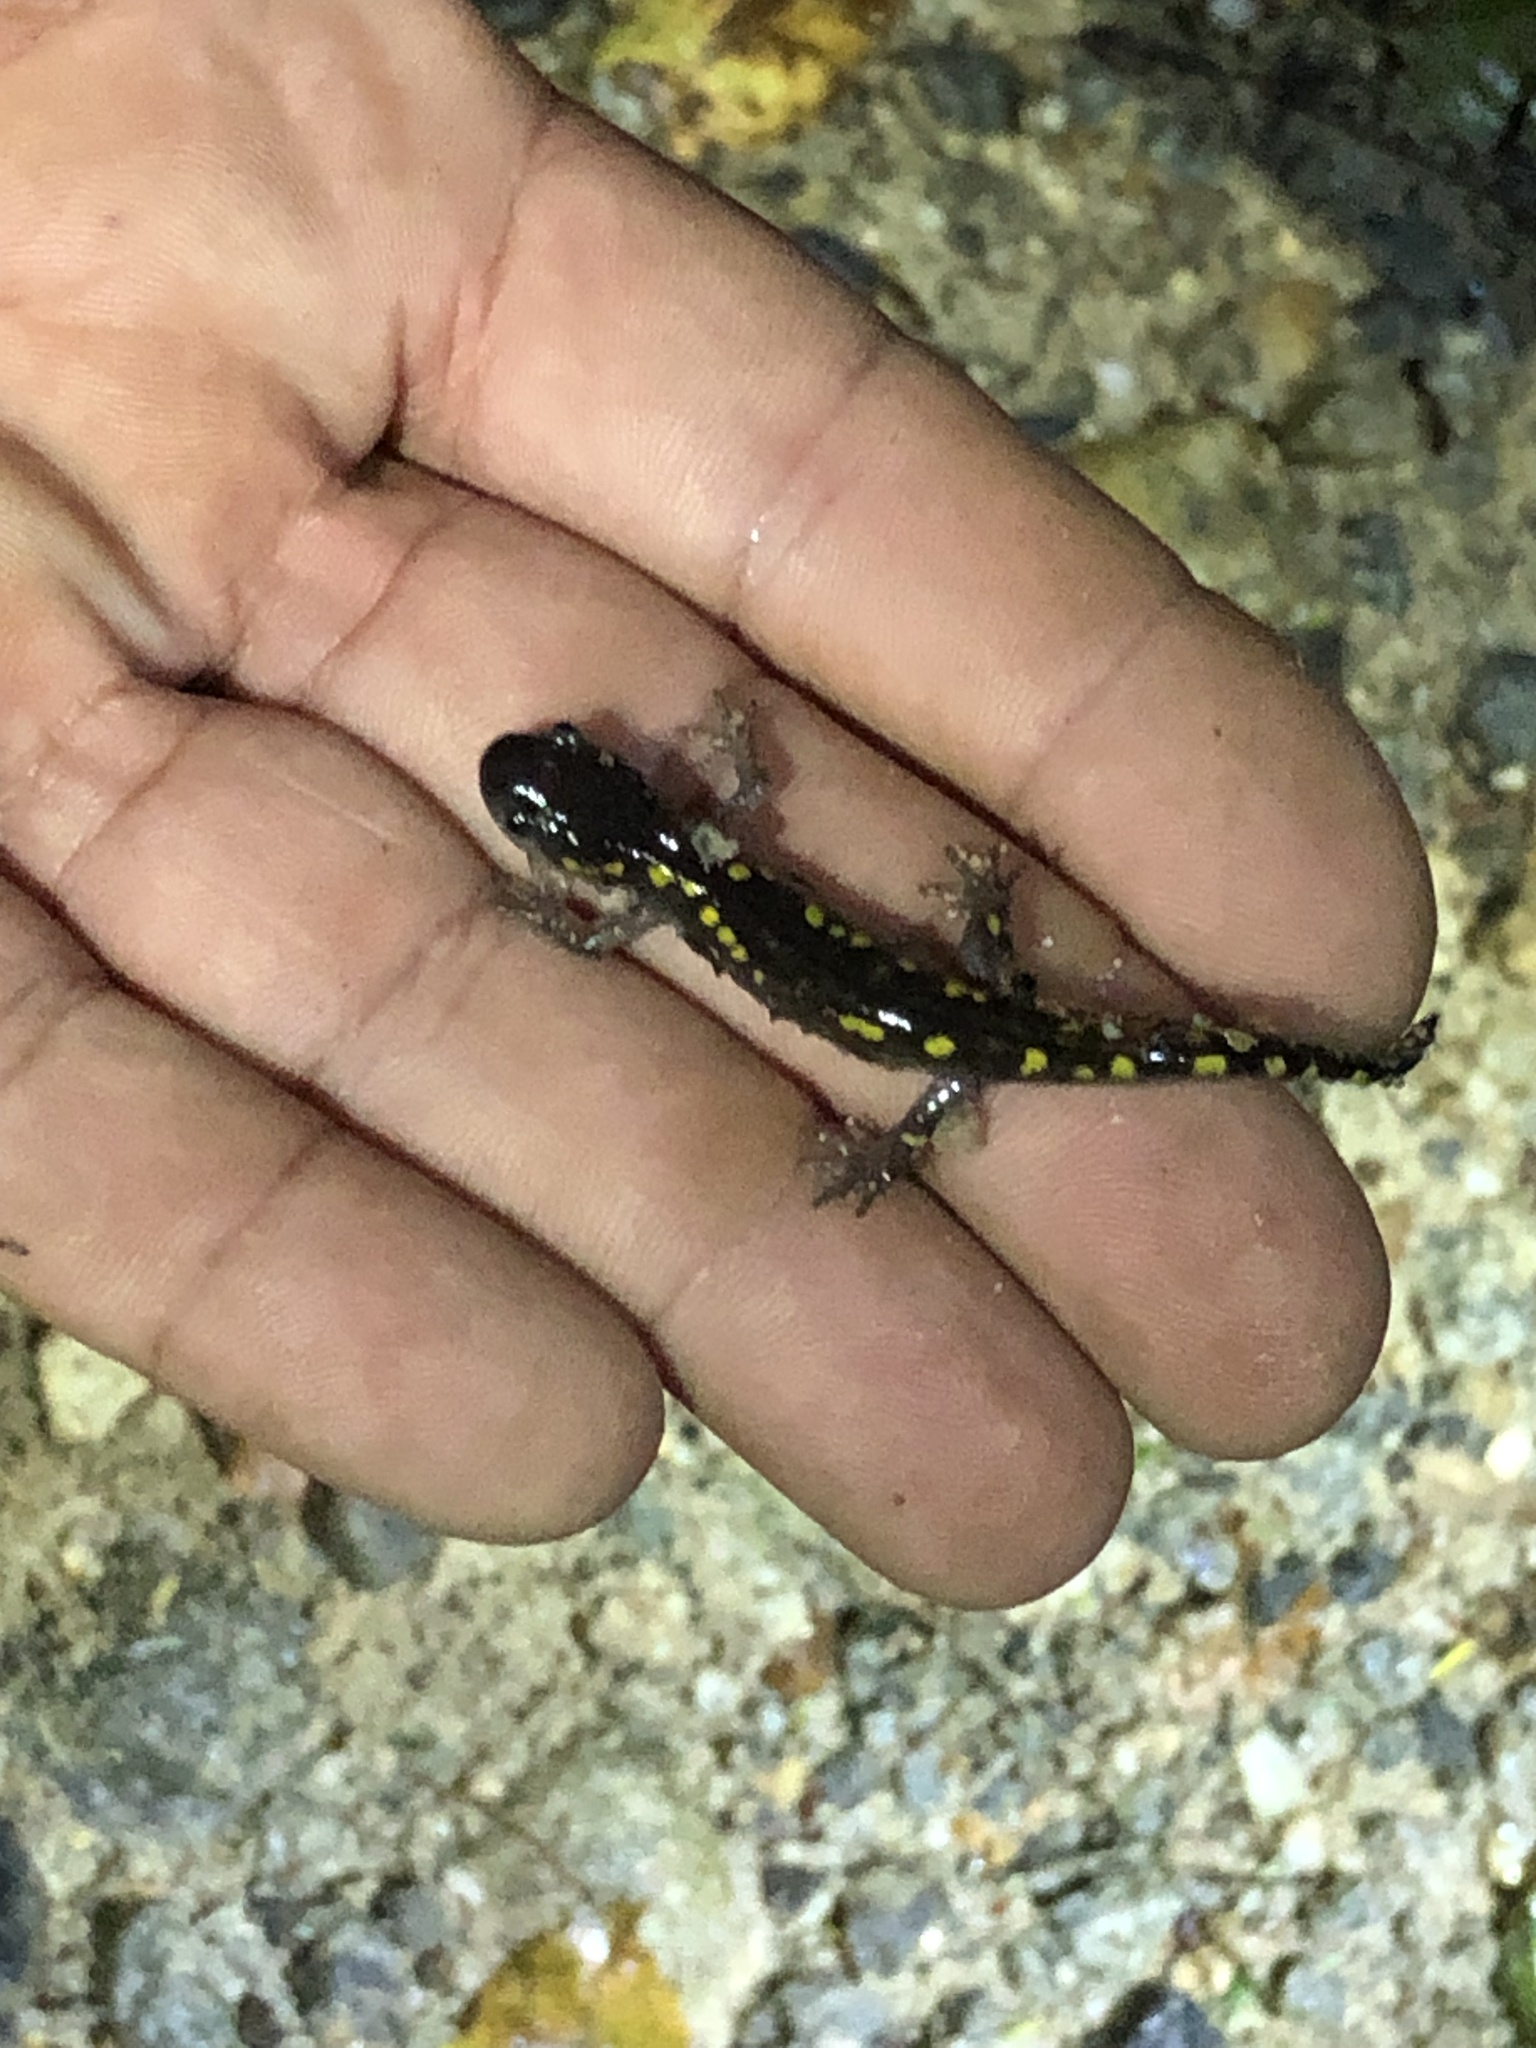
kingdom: Animalia
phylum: Chordata
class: Amphibia
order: Caudata
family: Ambystomatidae
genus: Ambystoma
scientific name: Ambystoma maculatum
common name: Spotted salamander
